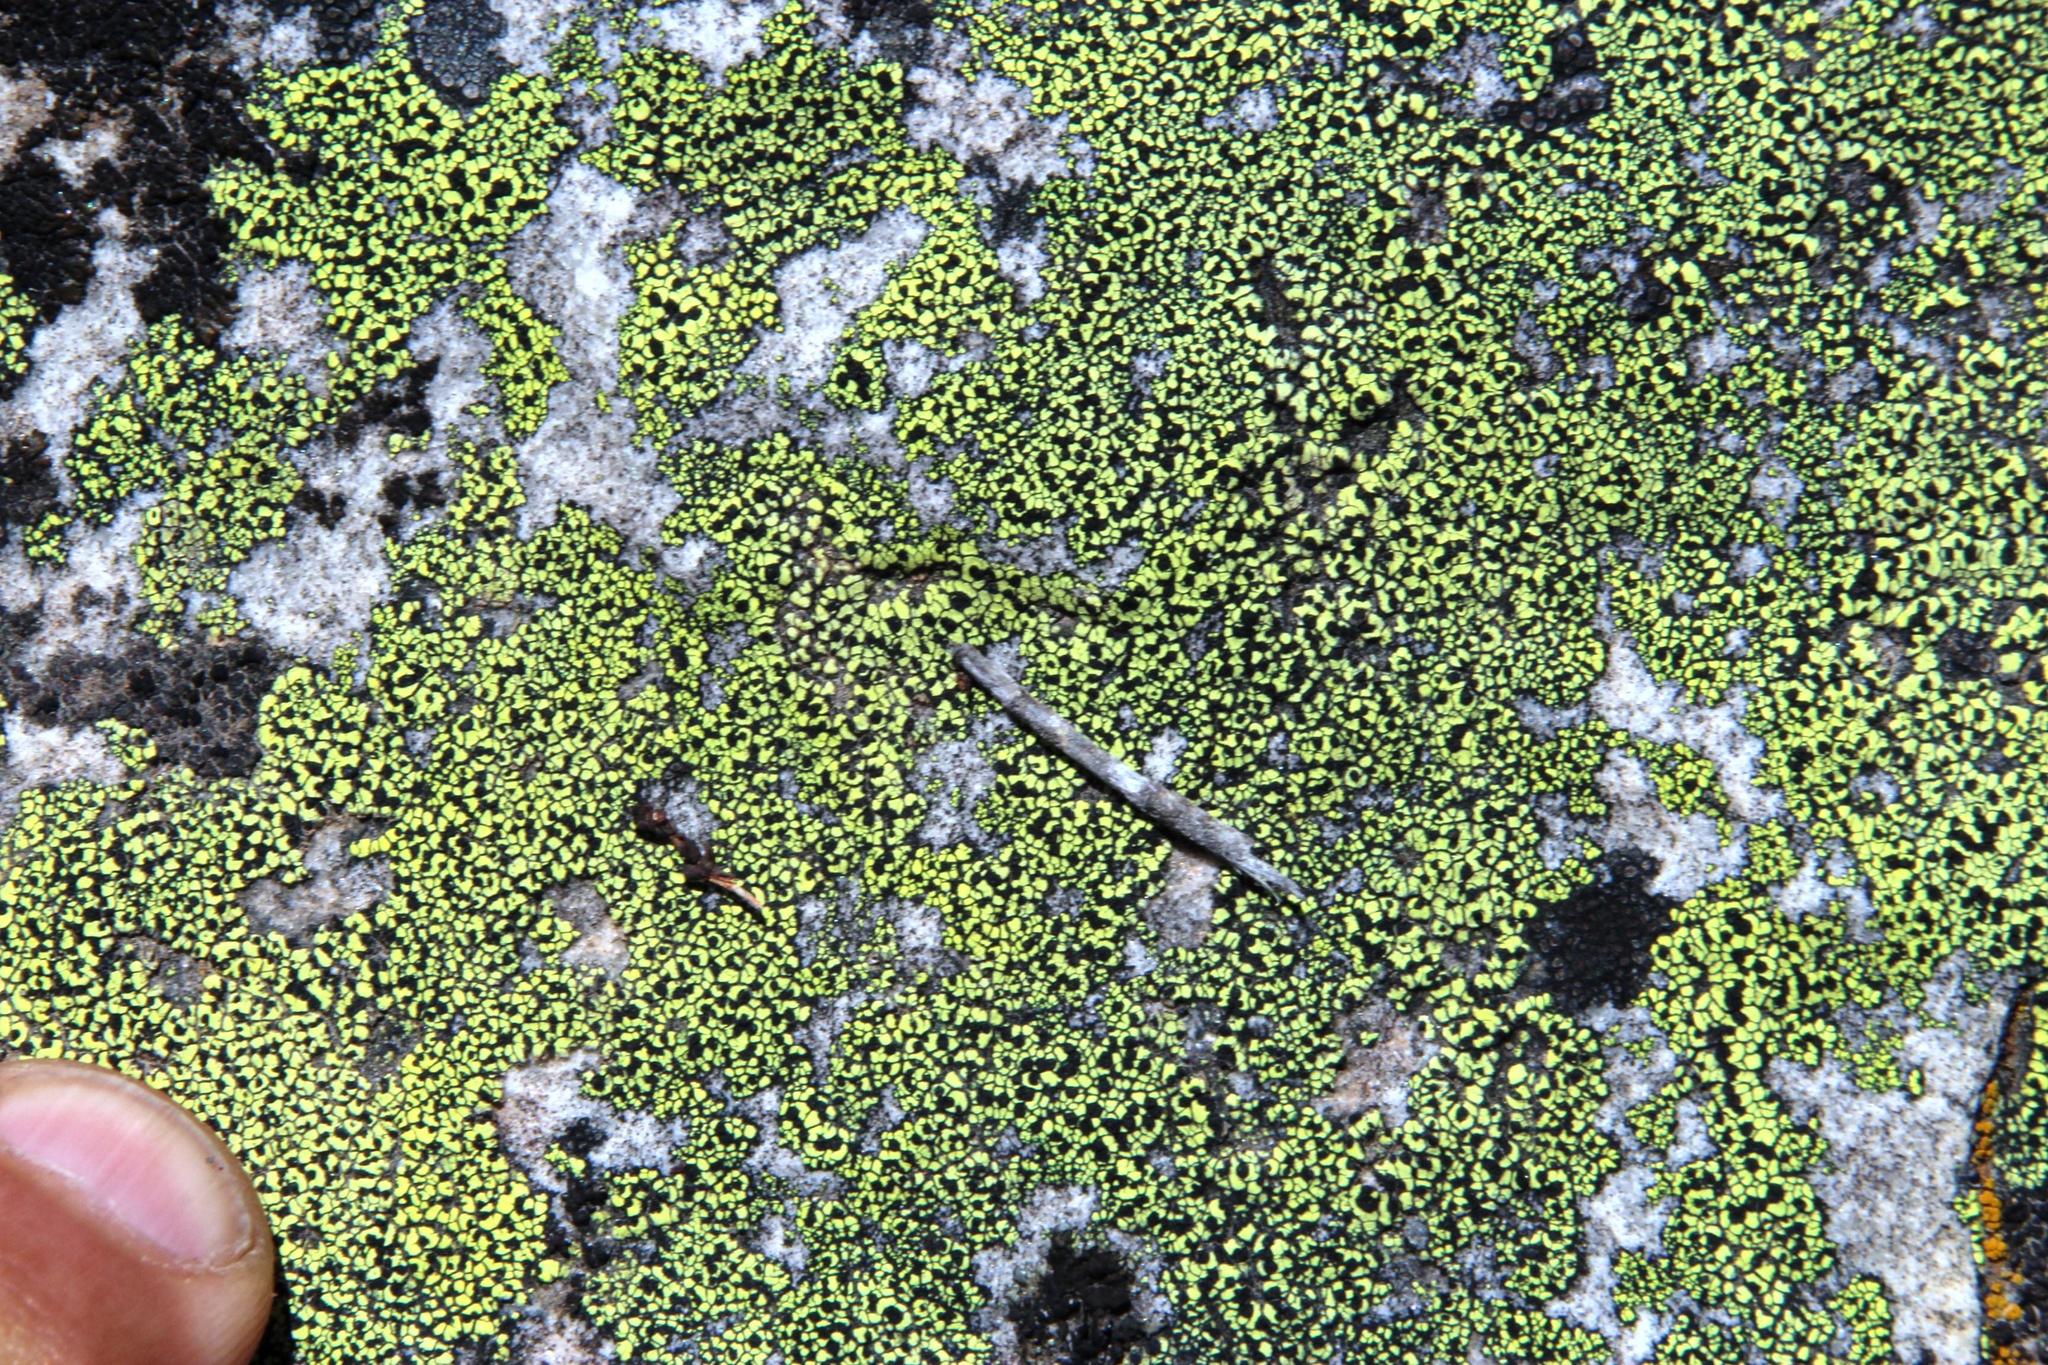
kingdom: Fungi
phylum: Ascomycota
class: Lecanoromycetes
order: Rhizocarpales
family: Rhizocarpaceae
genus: Rhizocarpon
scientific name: Rhizocarpon lecanorinum
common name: Crescent map lichen
